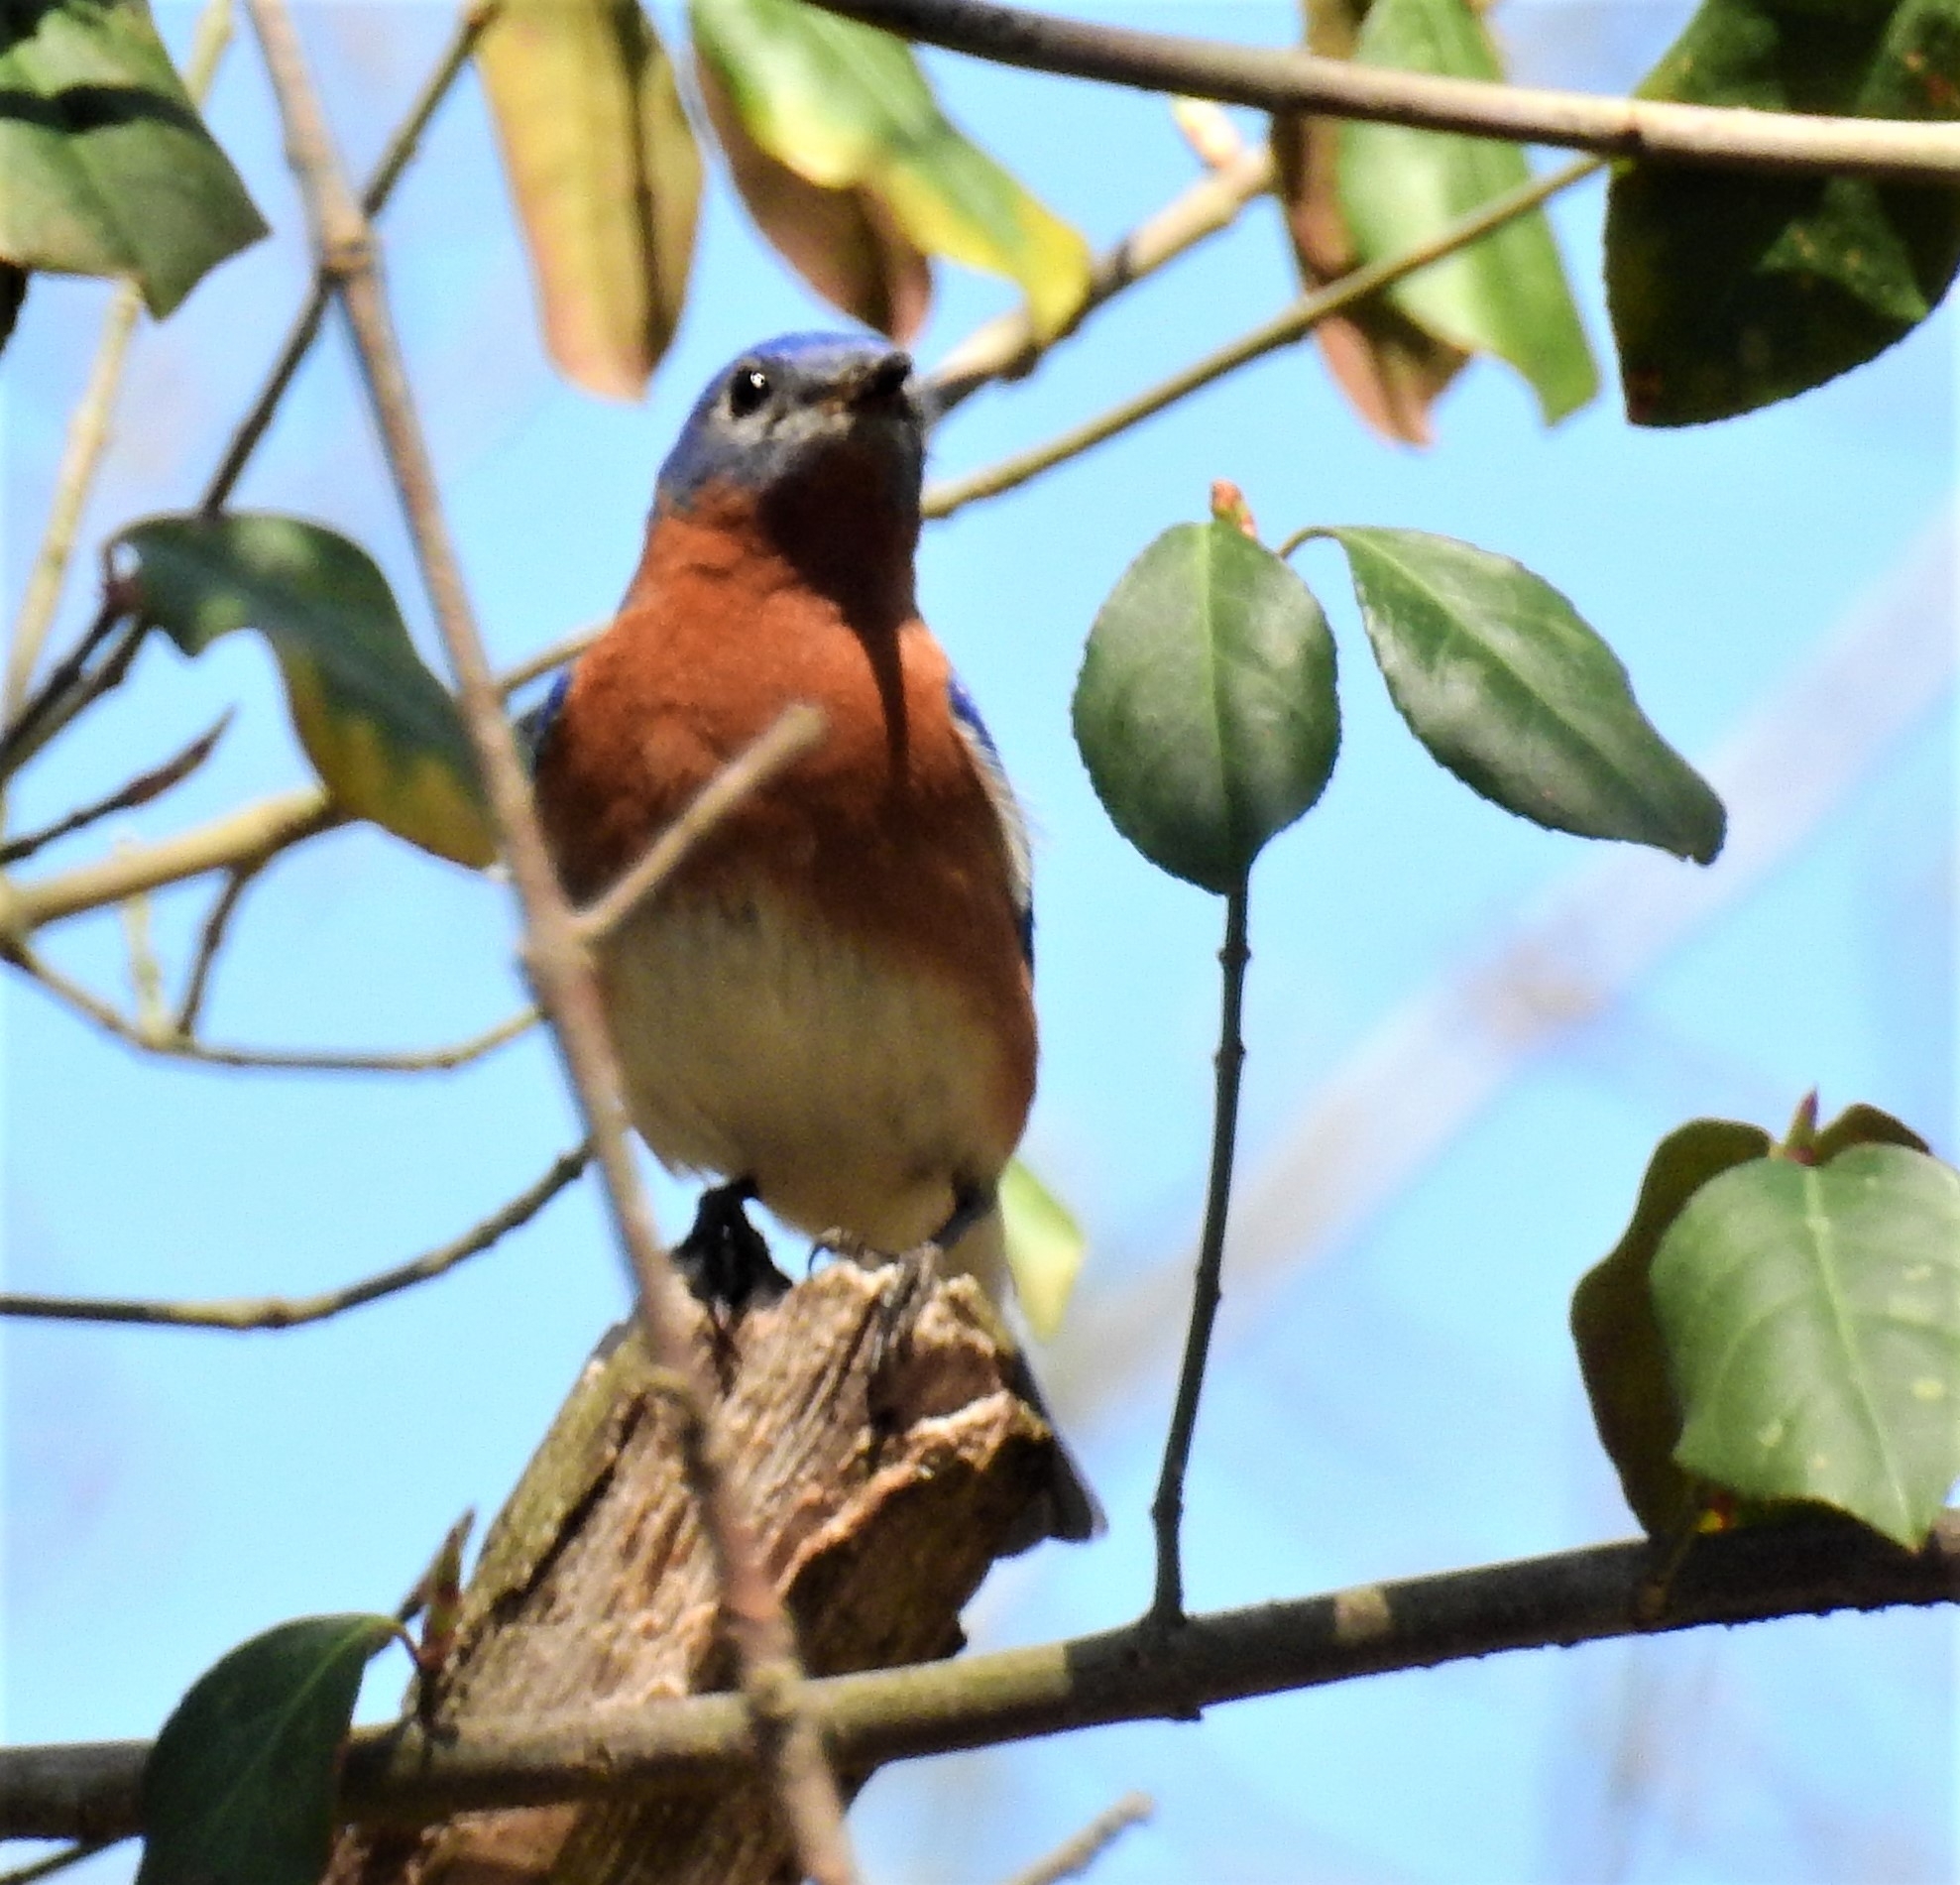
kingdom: Animalia
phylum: Chordata
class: Aves
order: Passeriformes
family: Turdidae
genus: Sialia
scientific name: Sialia sialis
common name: Eastern bluebird
